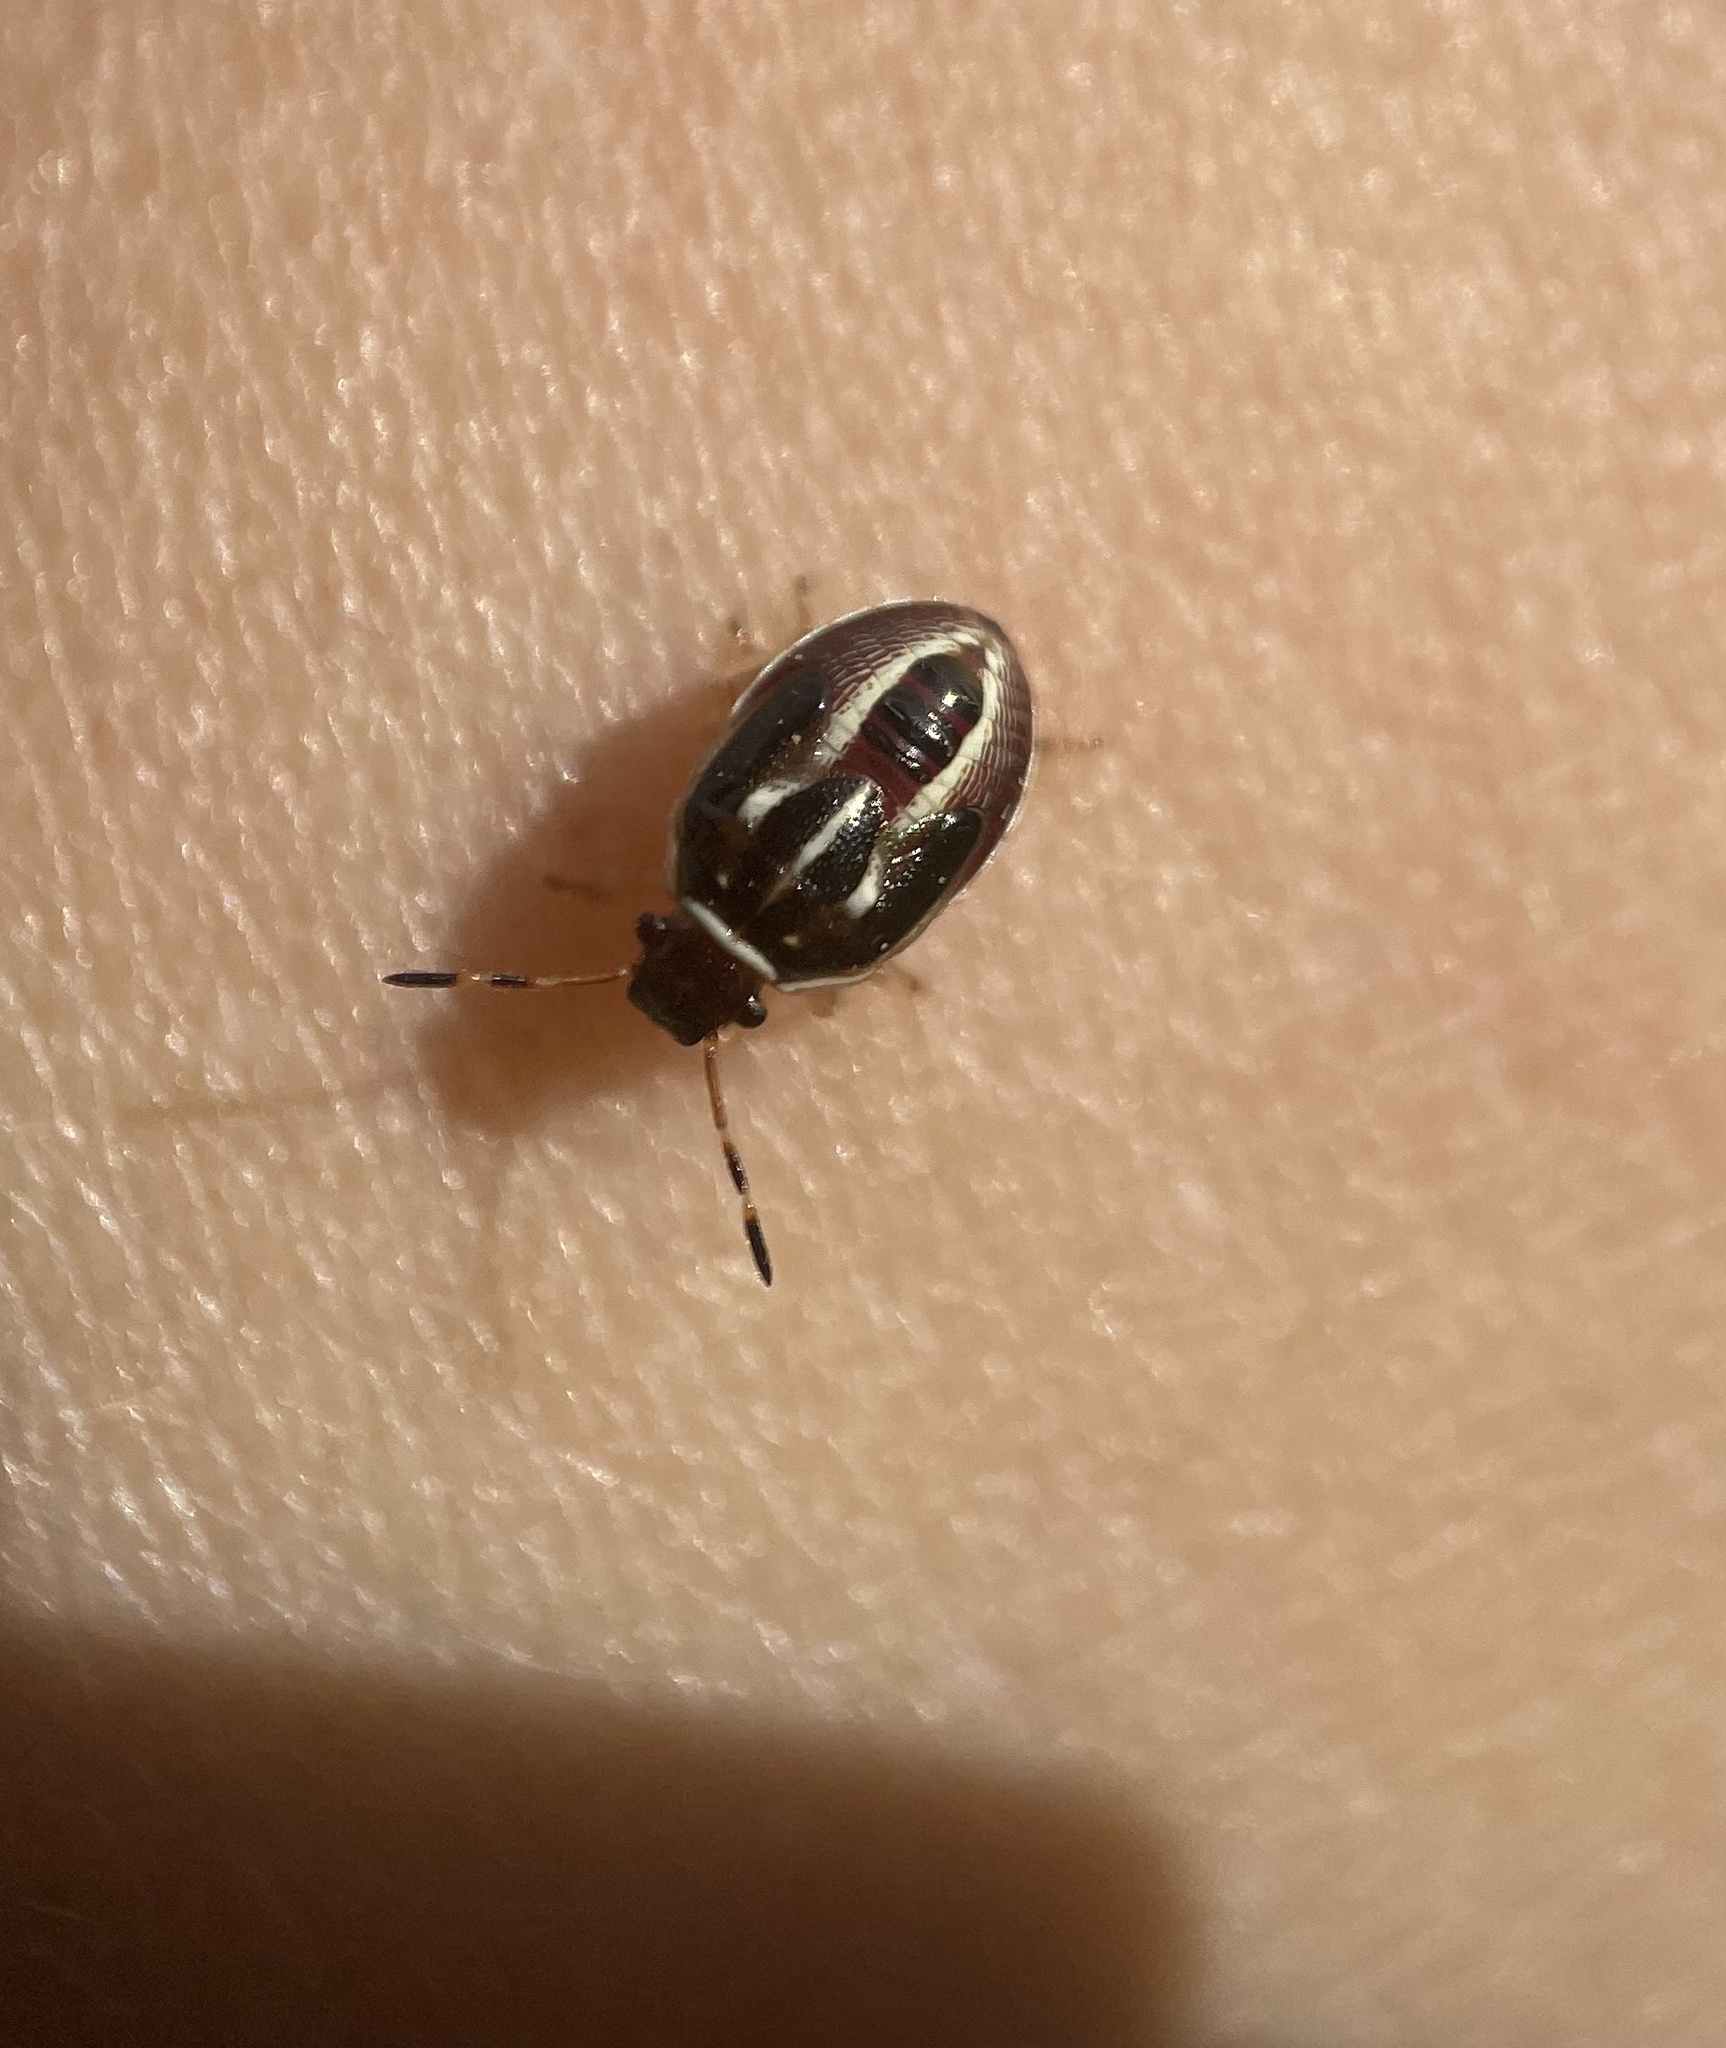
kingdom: Animalia
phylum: Arthropoda
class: Insecta
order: Hemiptera
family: Pentatomidae
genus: Mormidea
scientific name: Mormidea lugens
